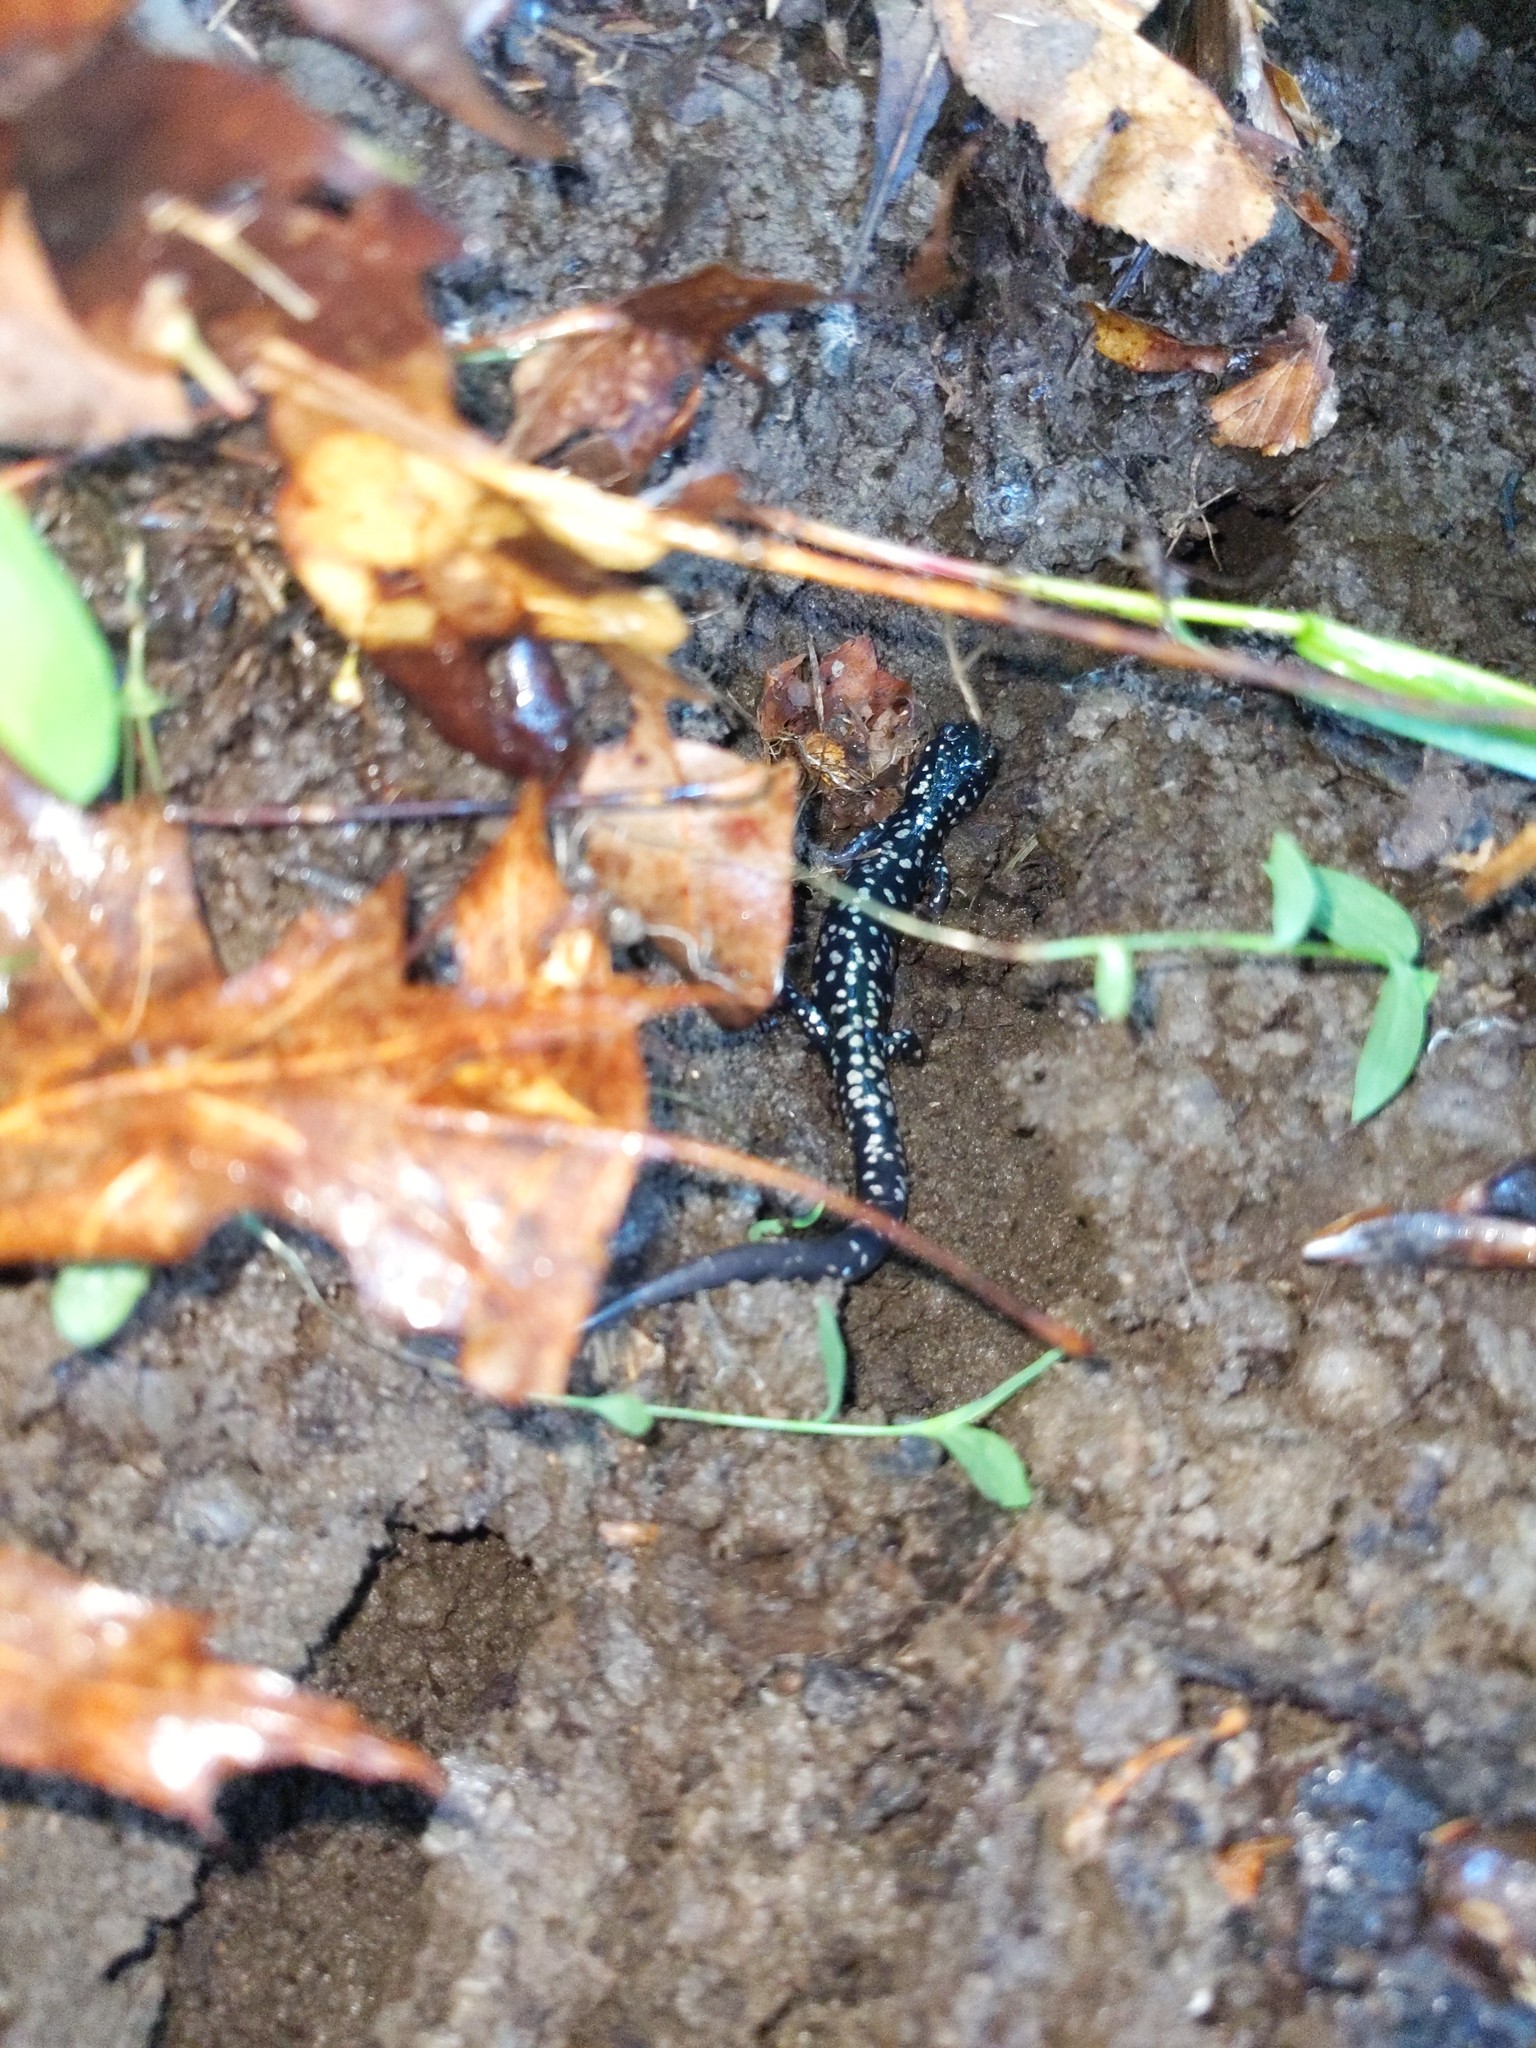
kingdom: Animalia
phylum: Chordata
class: Amphibia
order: Caudata
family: Plethodontidae
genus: Plethodon
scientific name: Plethodon glutinosus
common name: Northern slimy salamander
